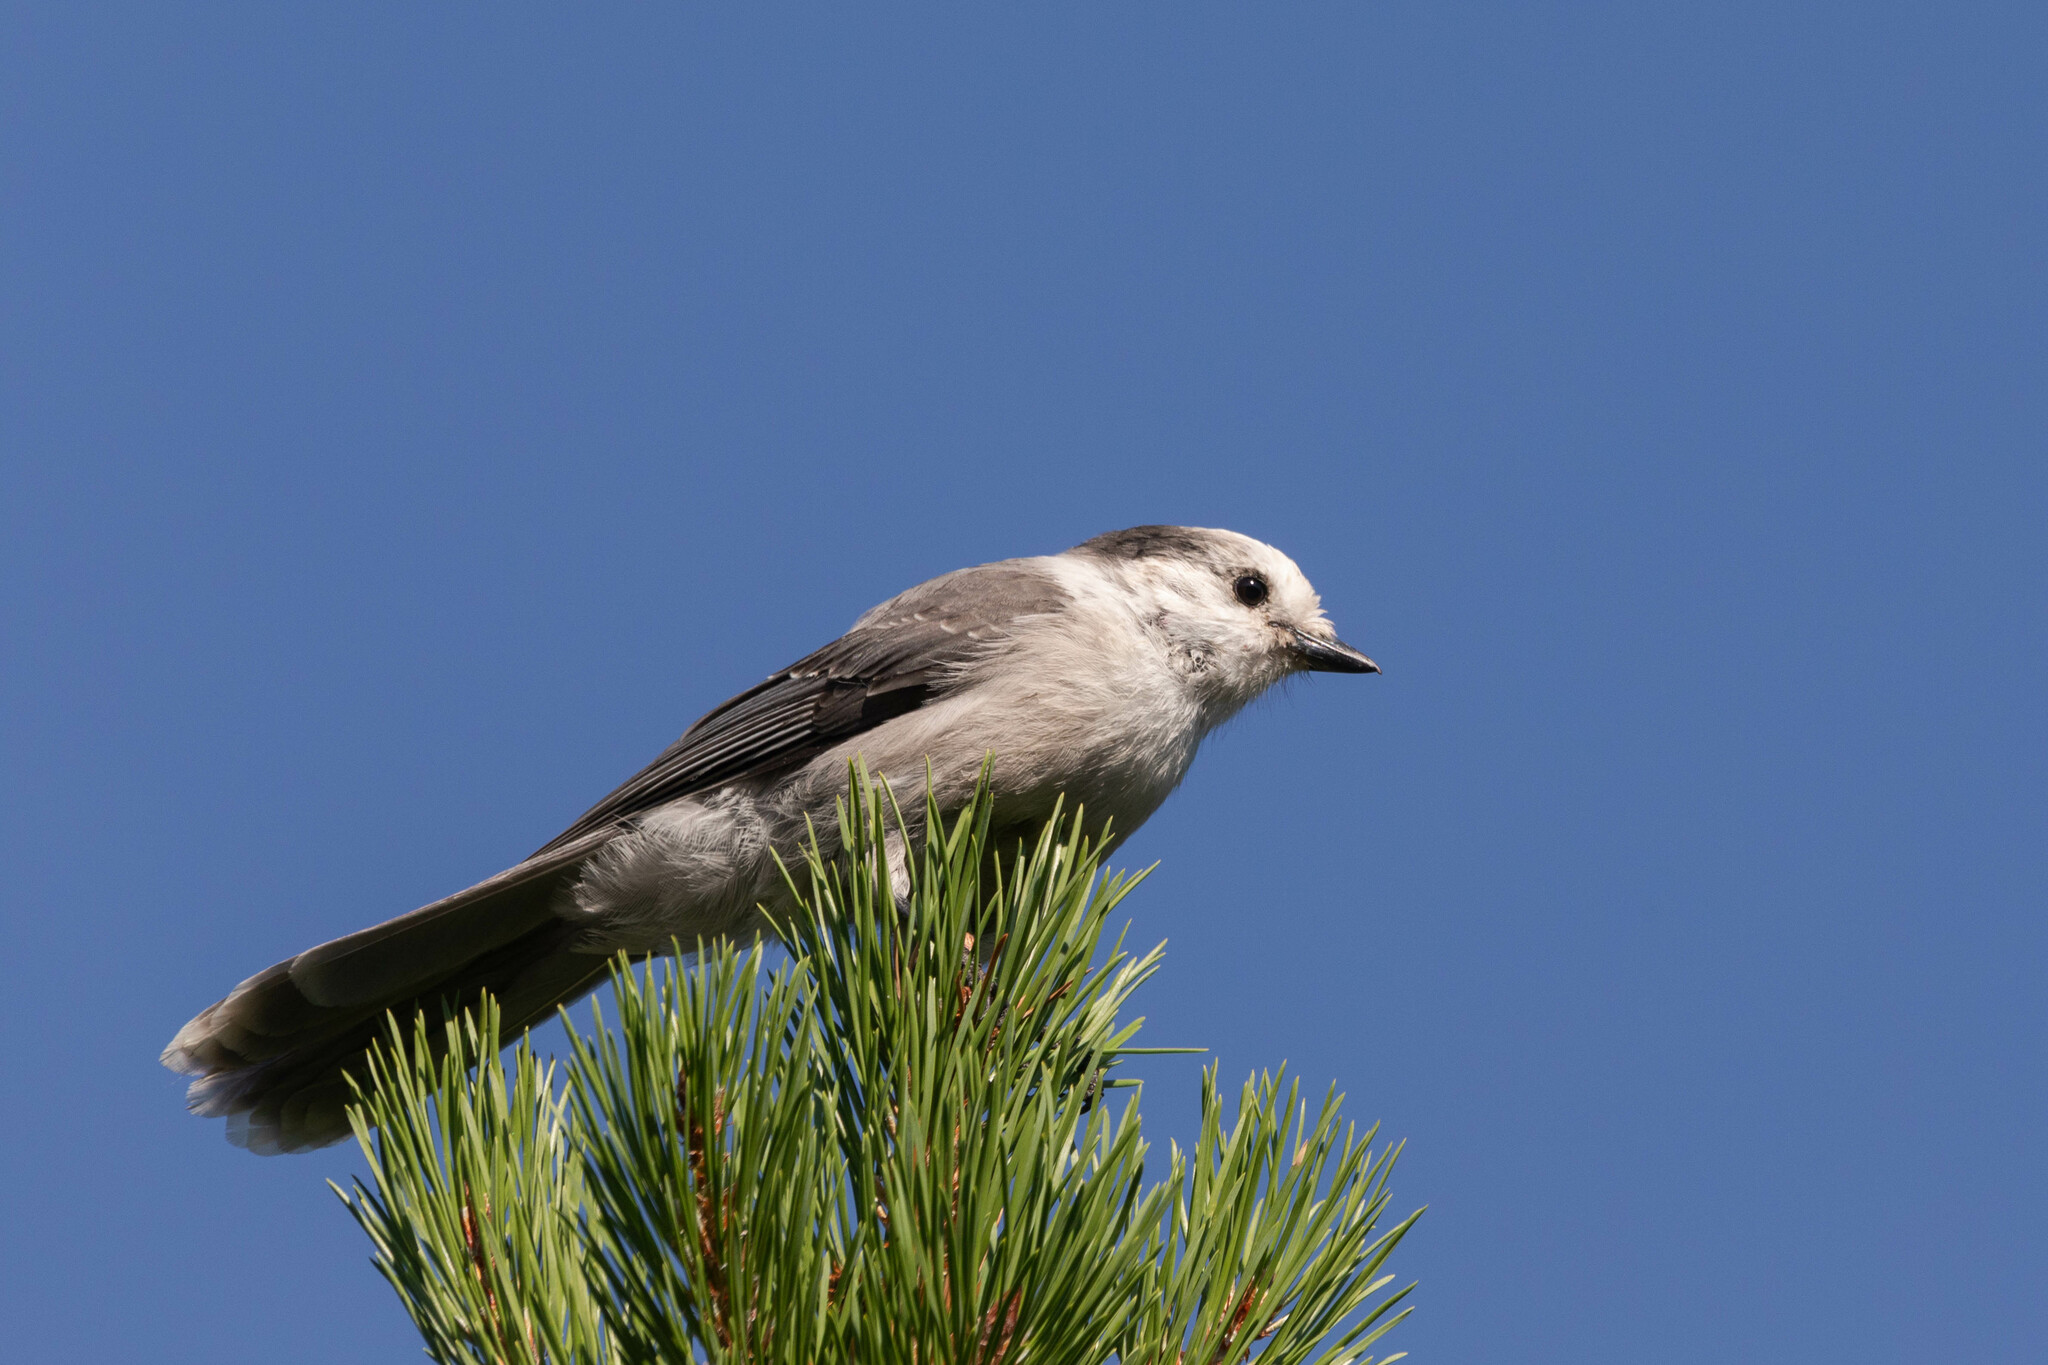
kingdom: Animalia
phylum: Chordata
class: Aves
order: Passeriformes
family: Corvidae
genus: Perisoreus
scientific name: Perisoreus canadensis
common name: Gray jay
